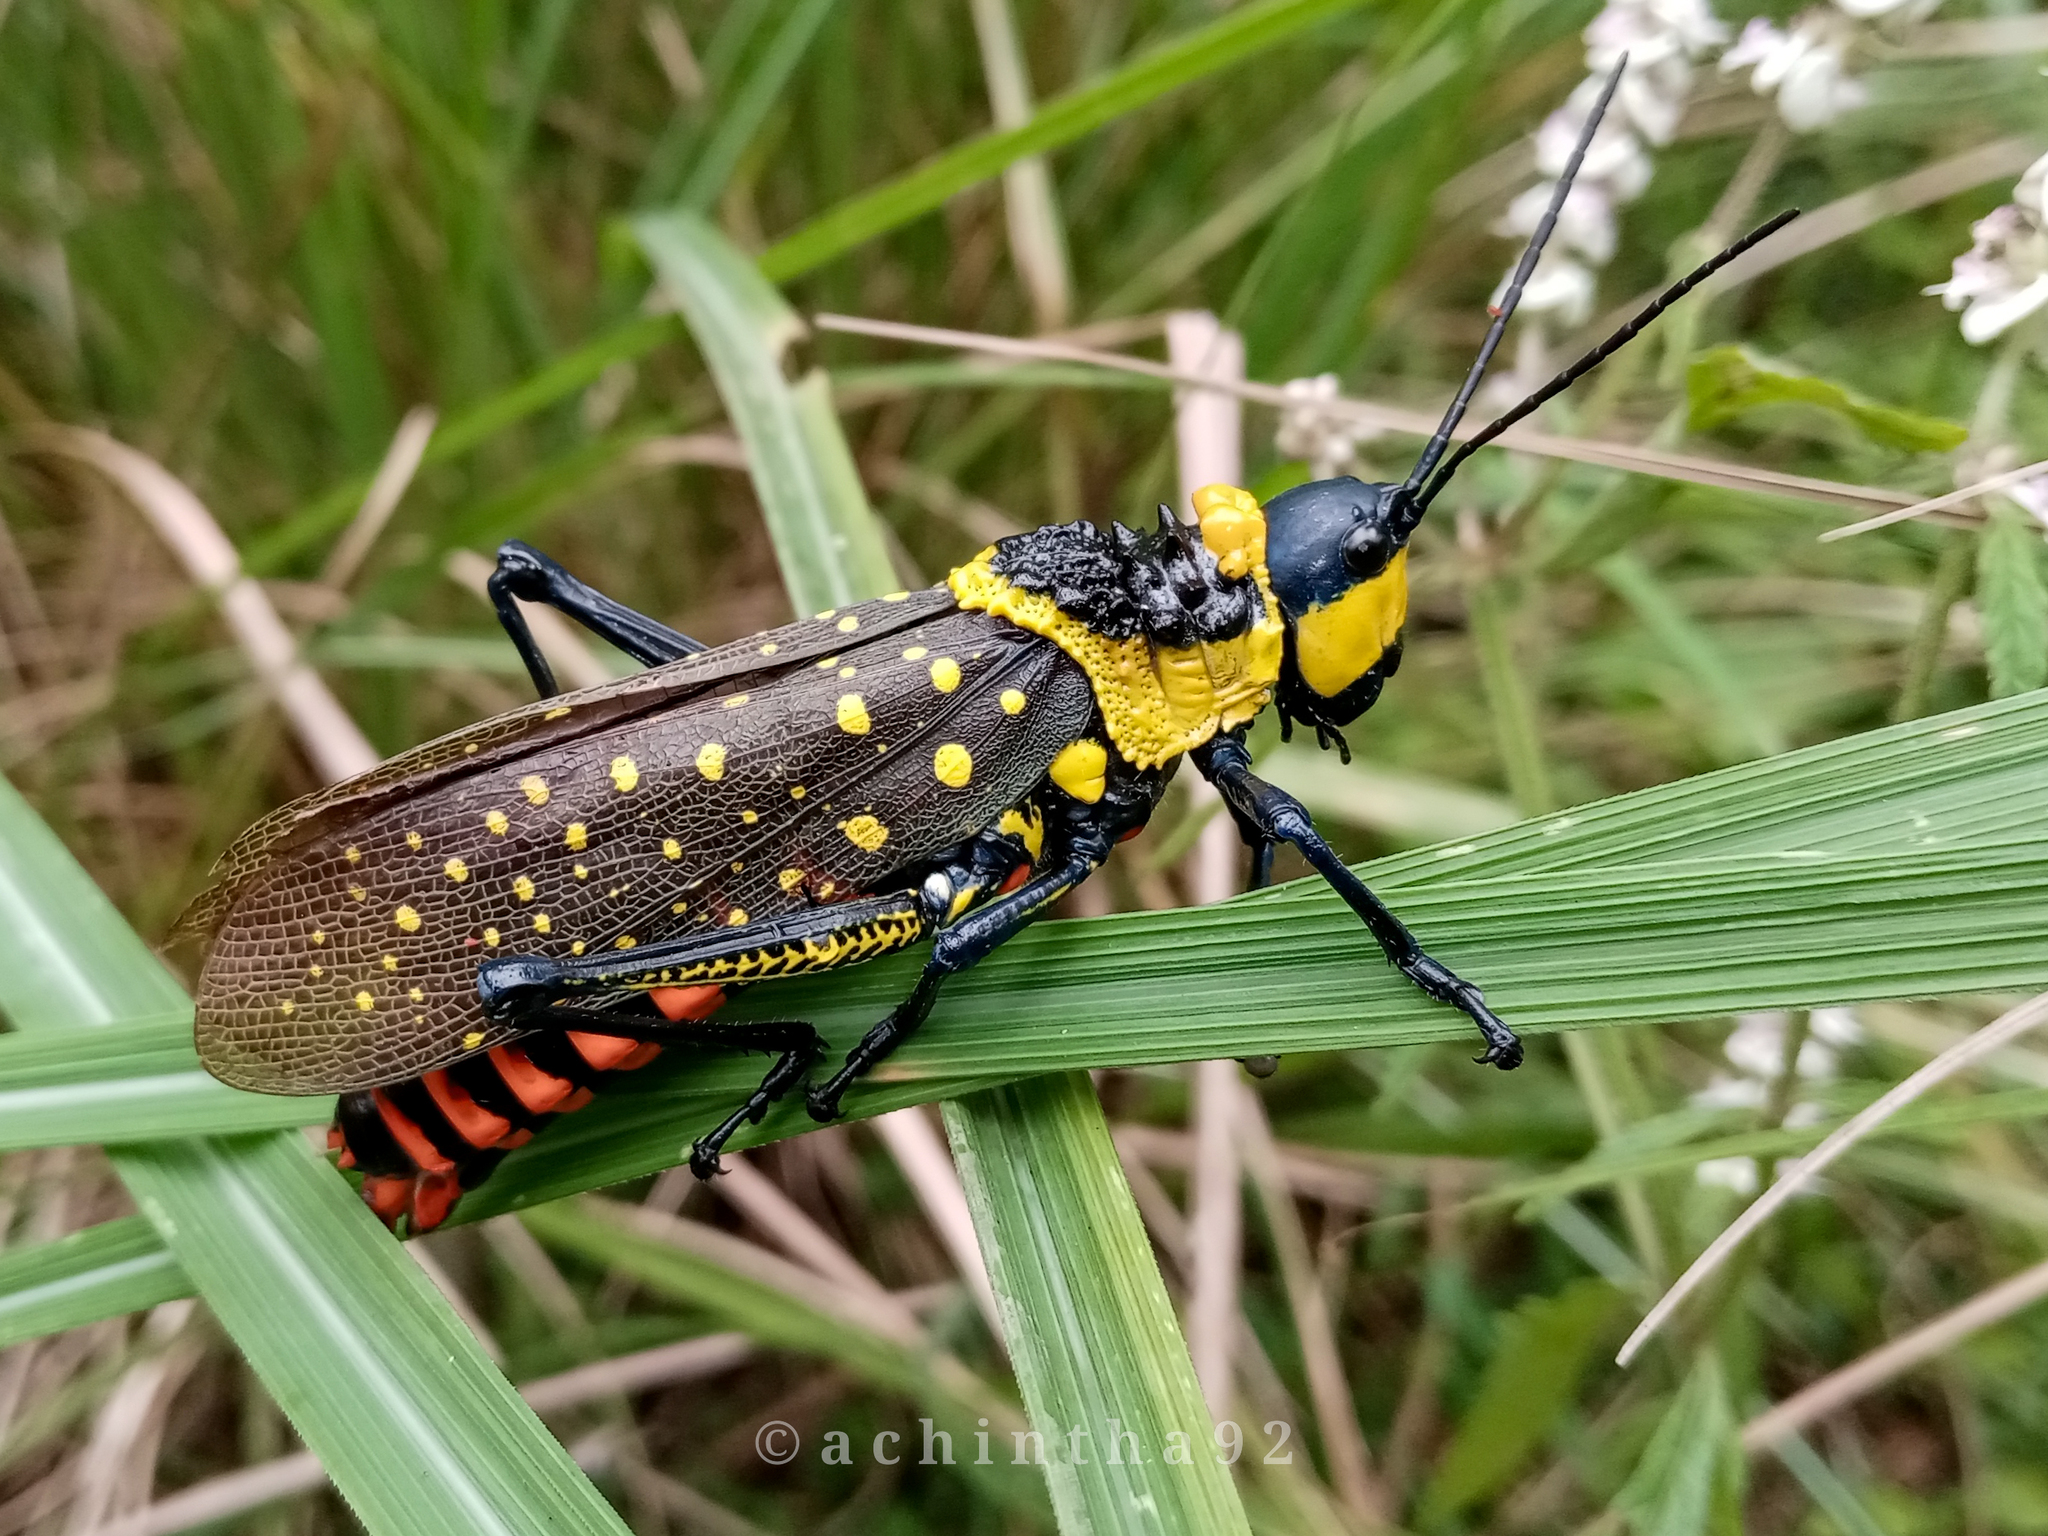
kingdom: Animalia
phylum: Arthropoda
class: Insecta
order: Orthoptera
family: Pyrgomorphidae
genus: Aularches
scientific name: Aularches miliaris
